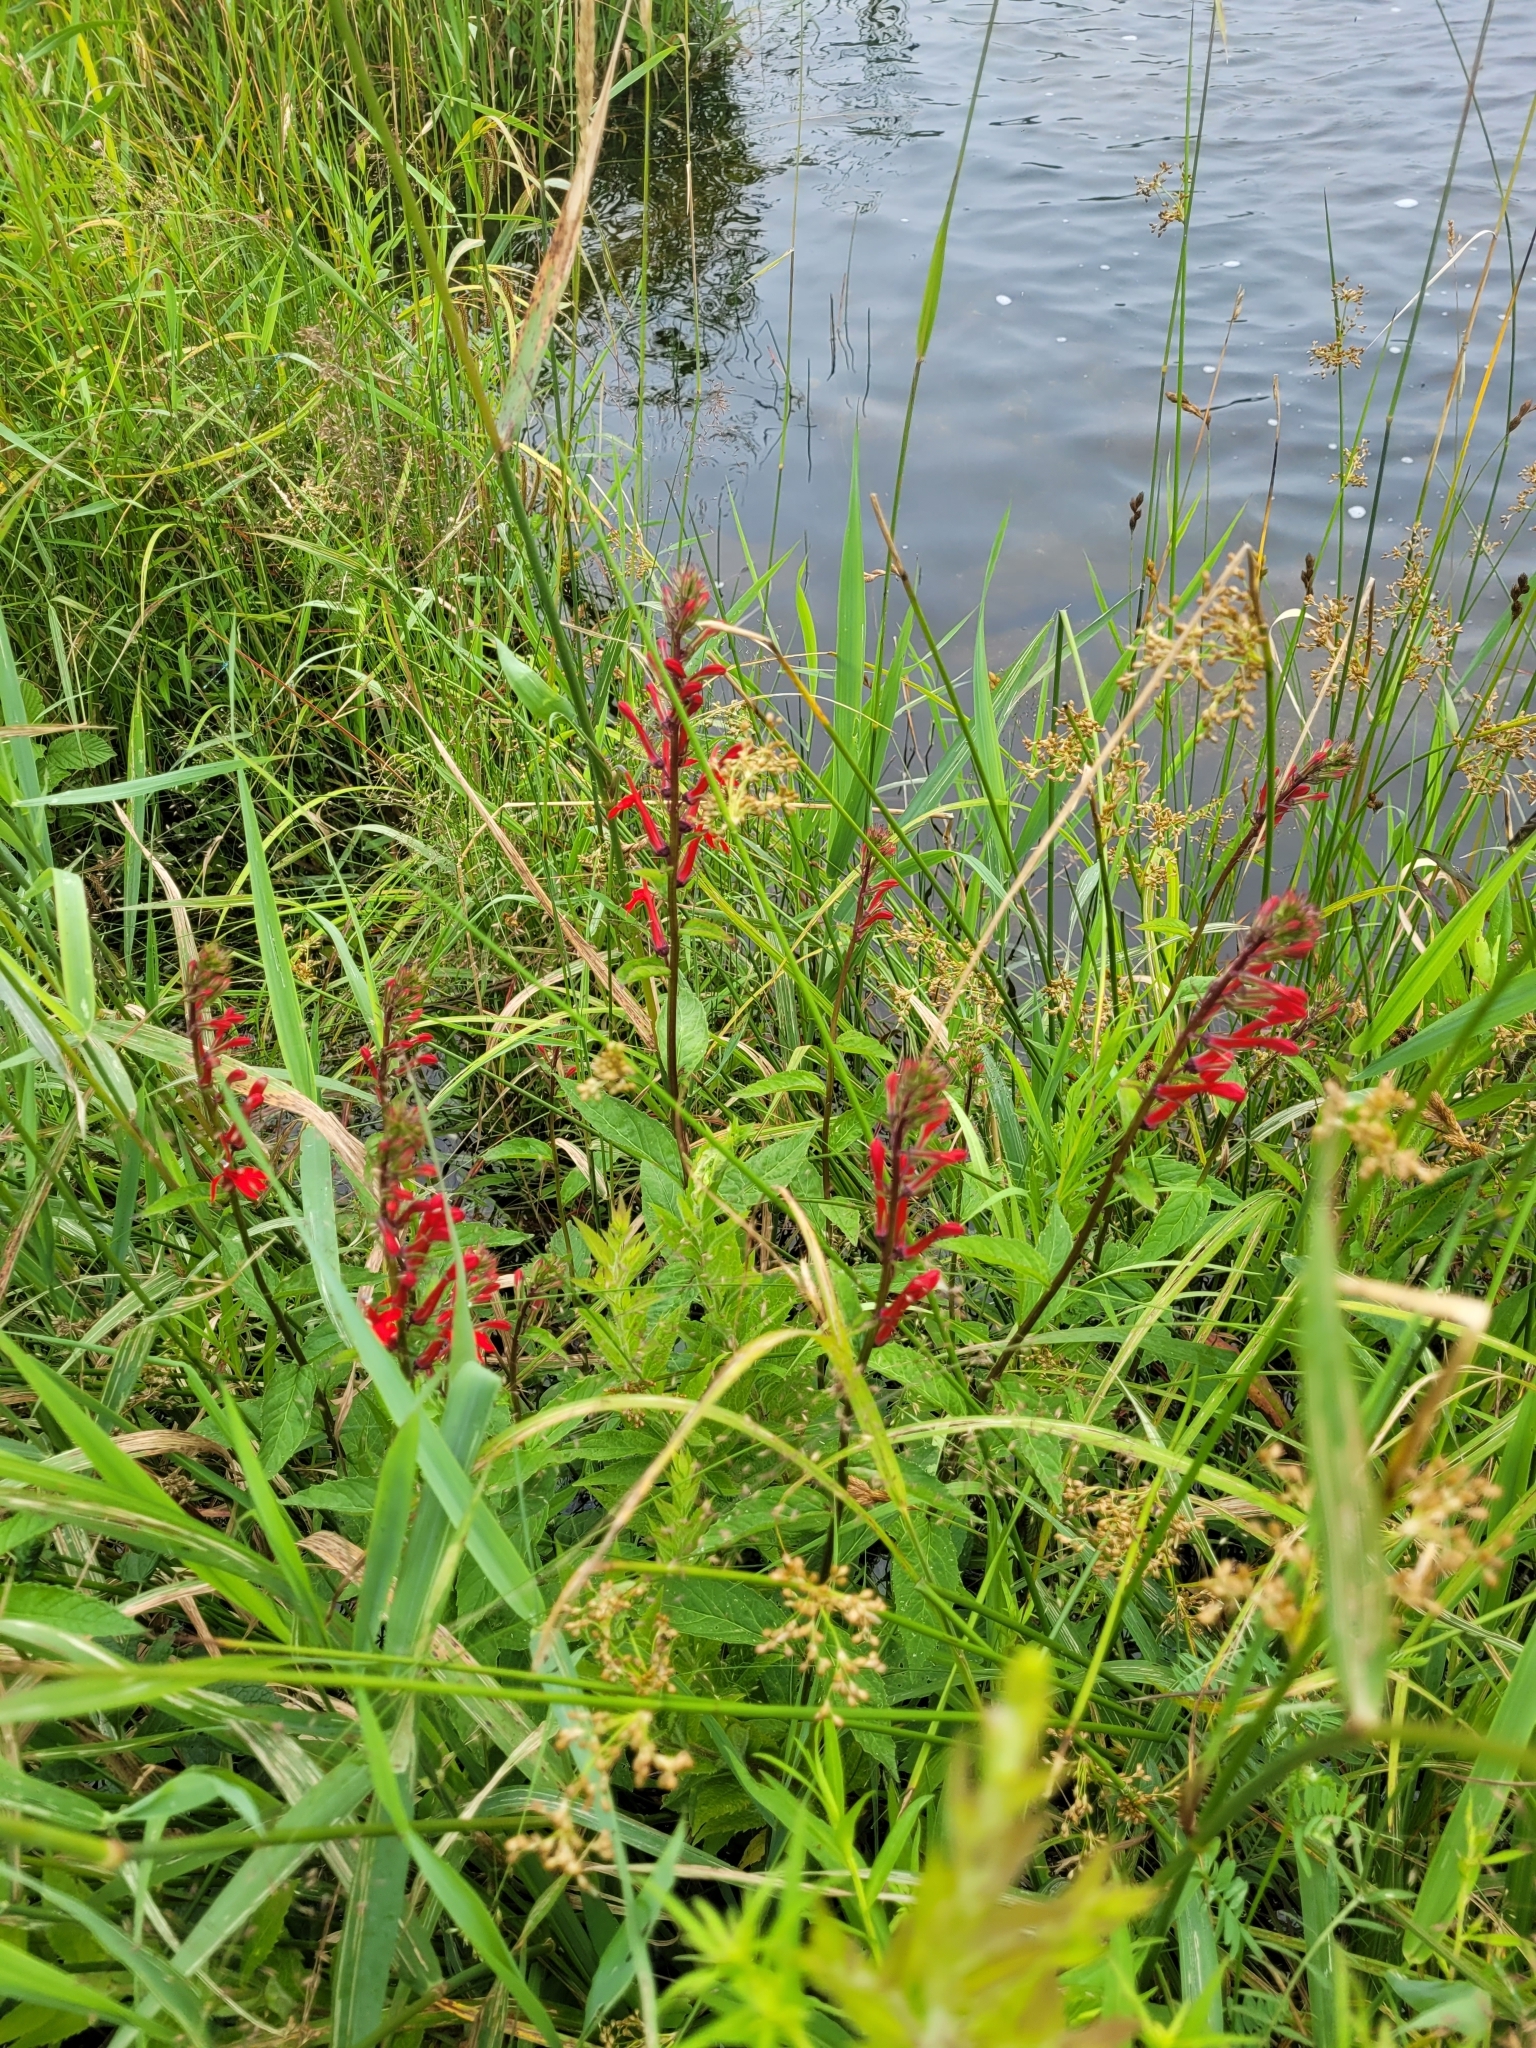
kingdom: Plantae
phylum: Tracheophyta
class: Magnoliopsida
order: Asterales
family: Campanulaceae
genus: Lobelia
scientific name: Lobelia cardinalis
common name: Cardinal flower
